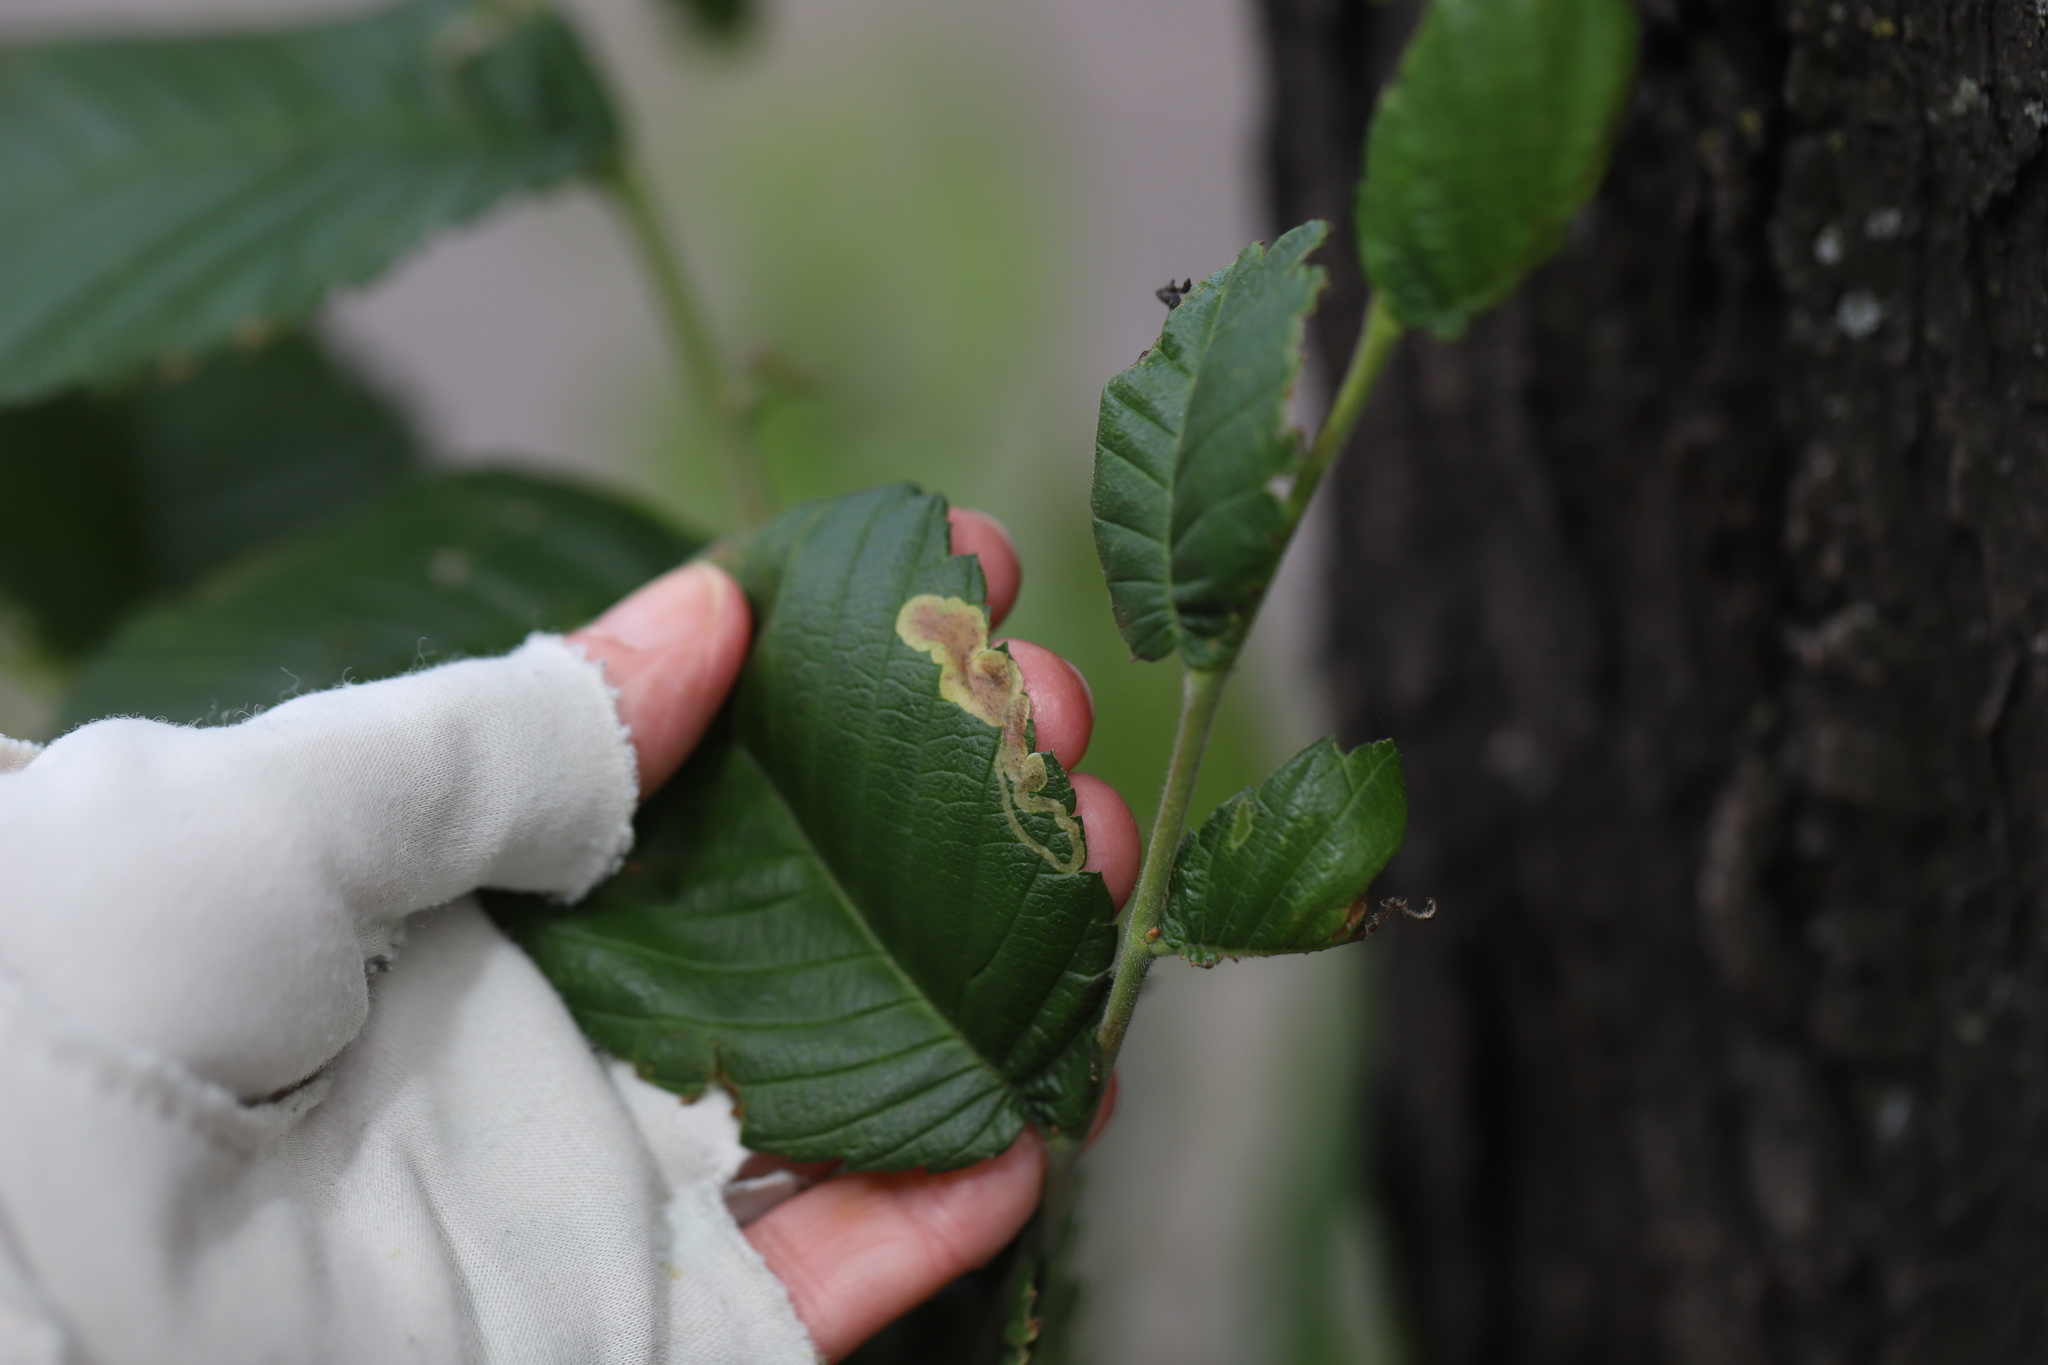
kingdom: Animalia
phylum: Arthropoda
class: Insecta
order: Diptera
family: Agromyzidae
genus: Agromyza
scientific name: Agromyza aristata
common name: Elm agromyzid leafminer
